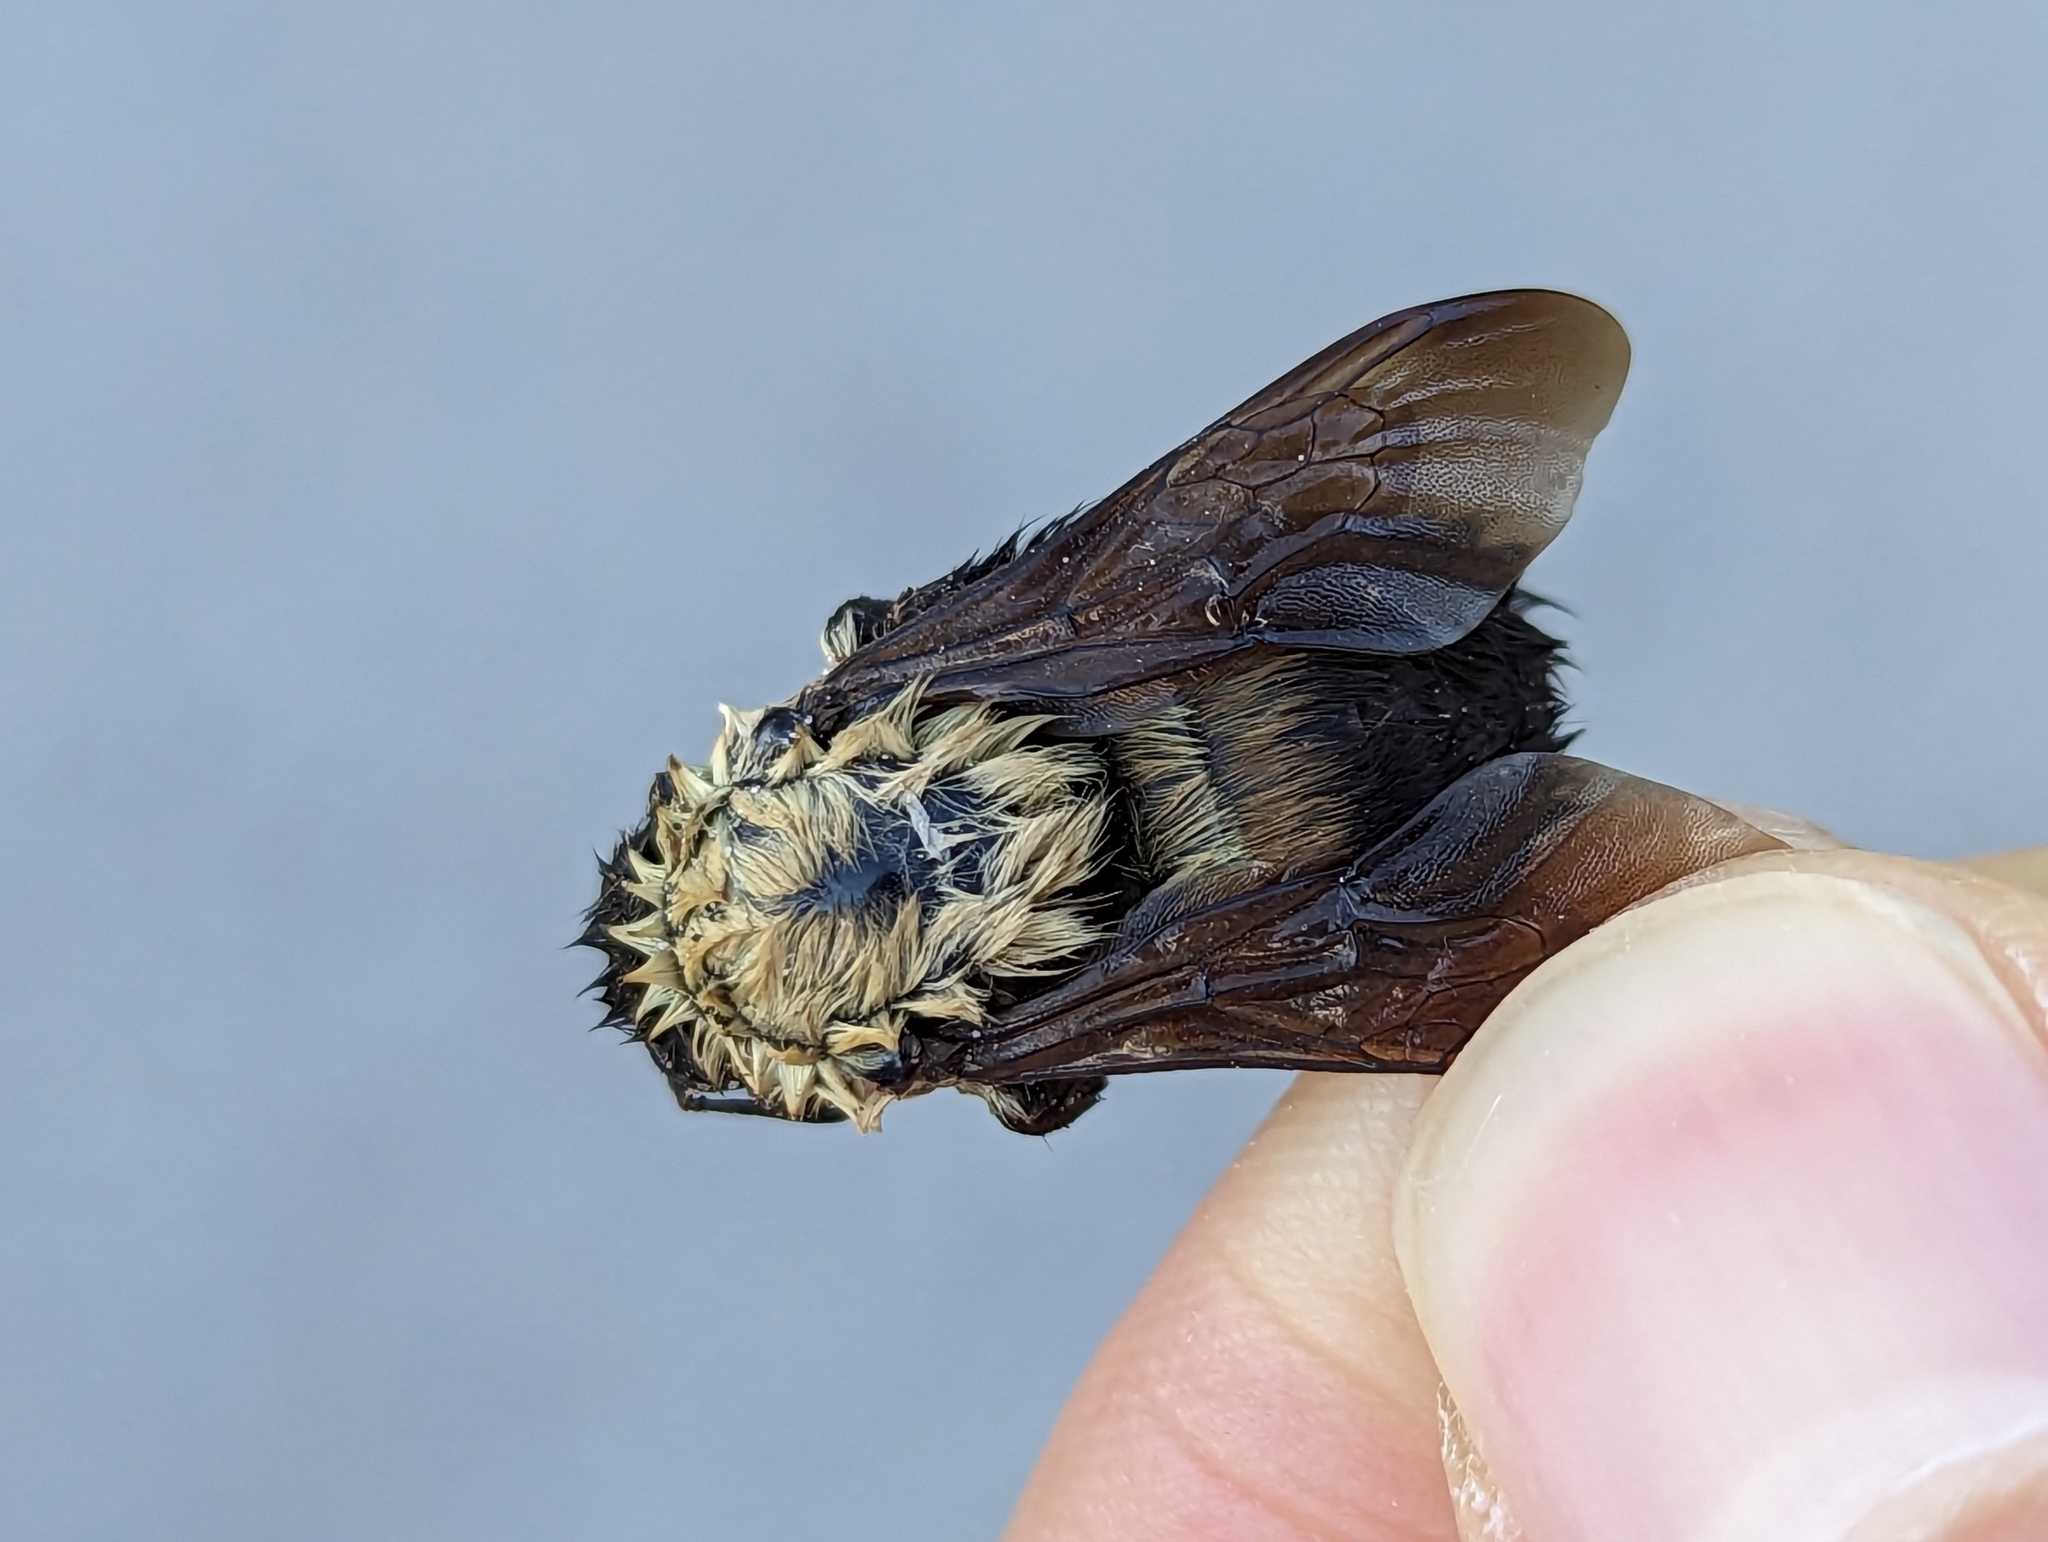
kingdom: Animalia
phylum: Arthropoda
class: Insecta
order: Hymenoptera
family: Apidae
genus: Bombus
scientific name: Bombus griseocollis
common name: Brown-belted bumble bee
